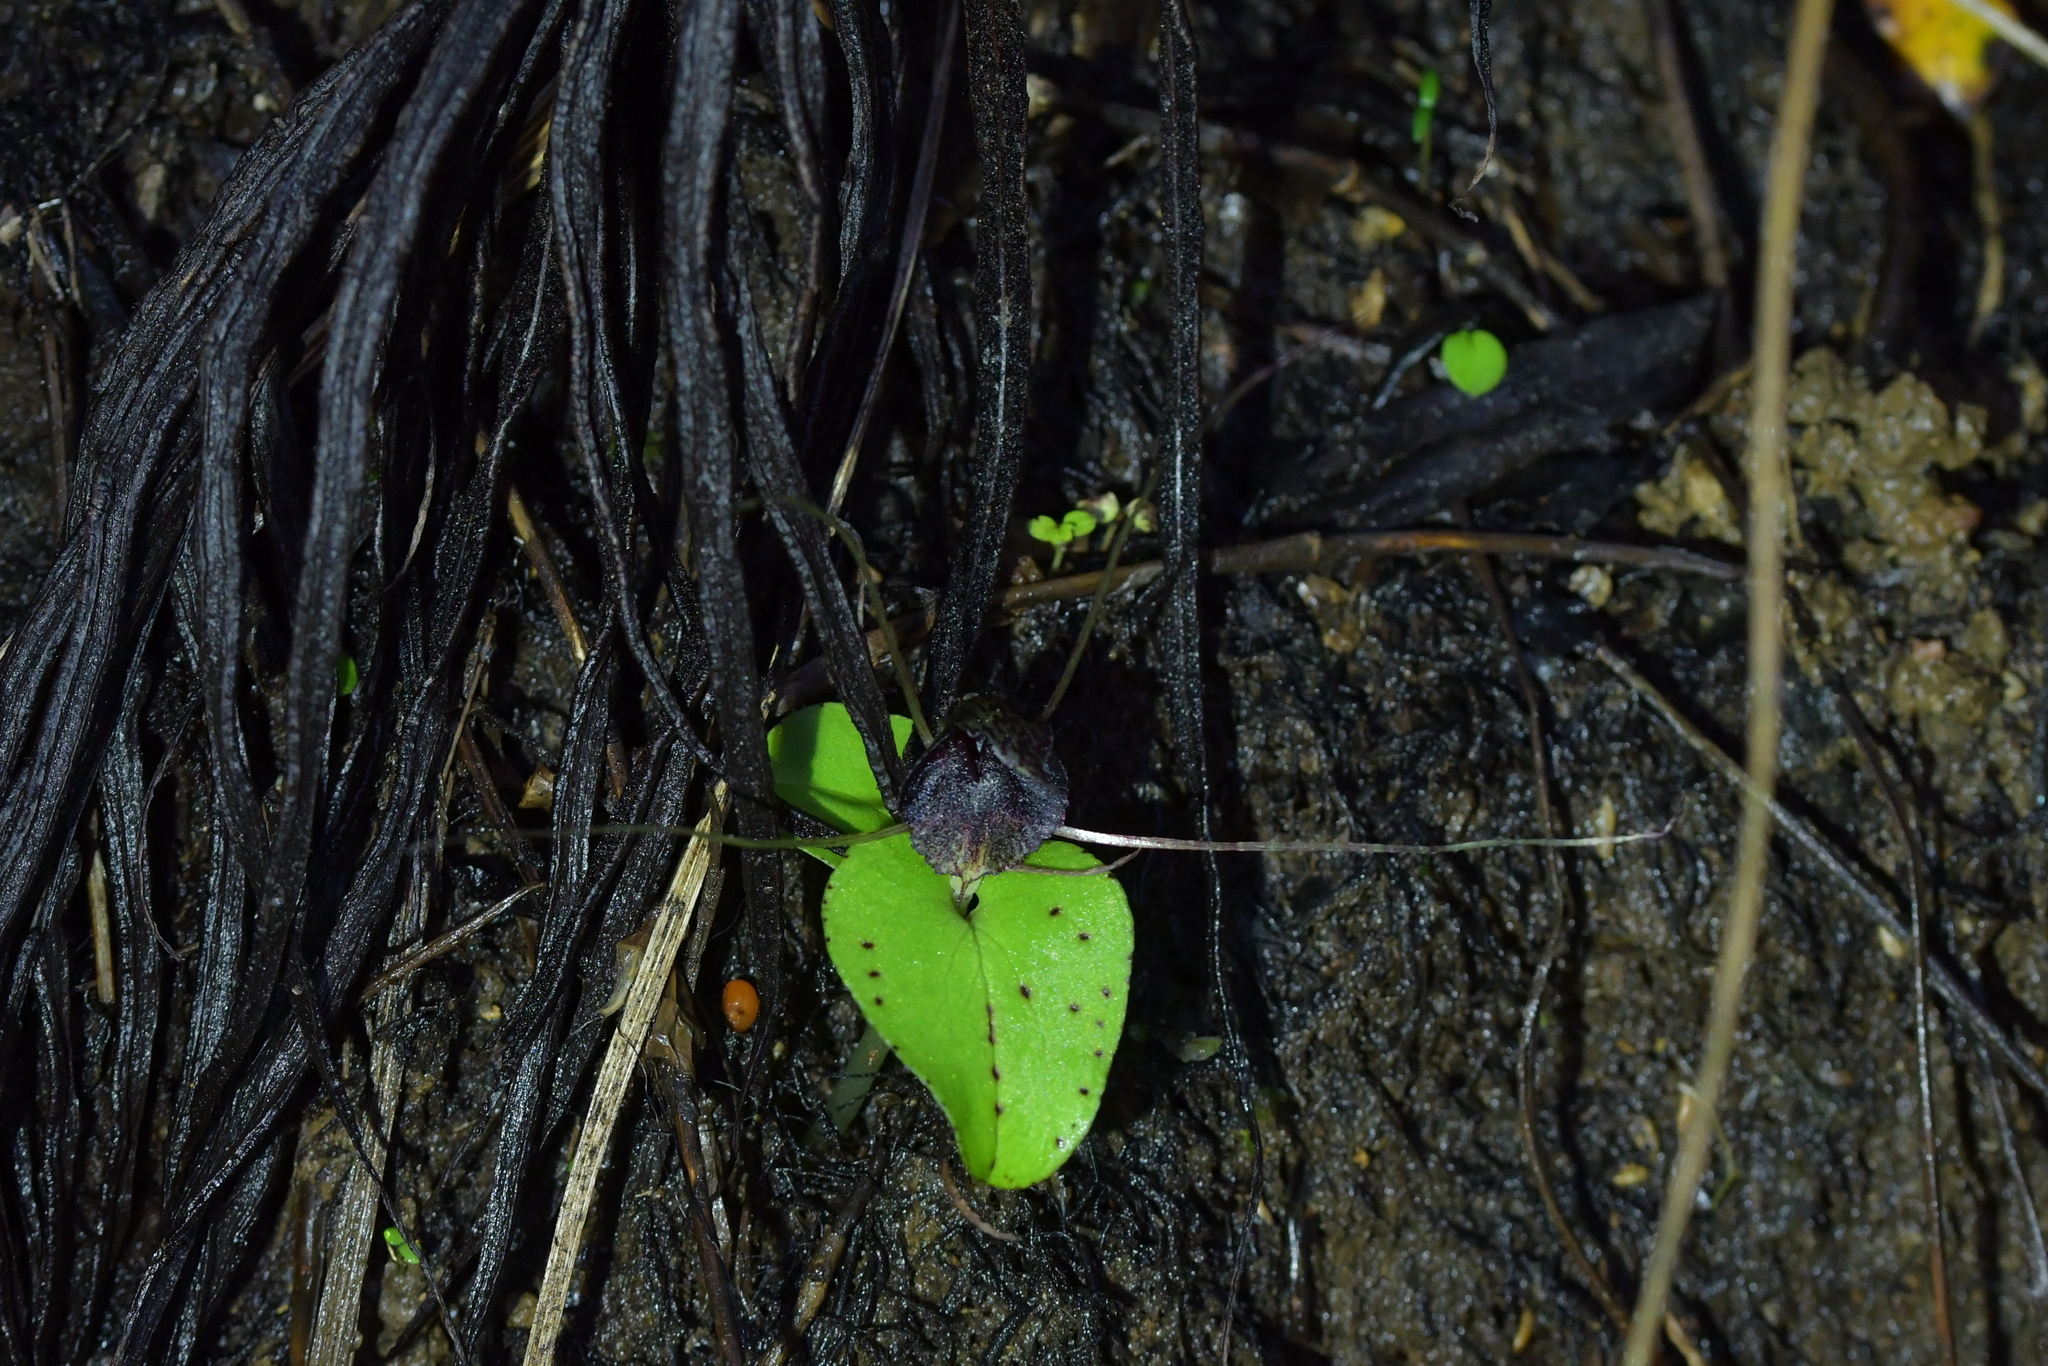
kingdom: Plantae
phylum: Tracheophyta
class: Liliopsida
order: Asparagales
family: Orchidaceae
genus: Corybas
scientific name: Corybas iridescens
